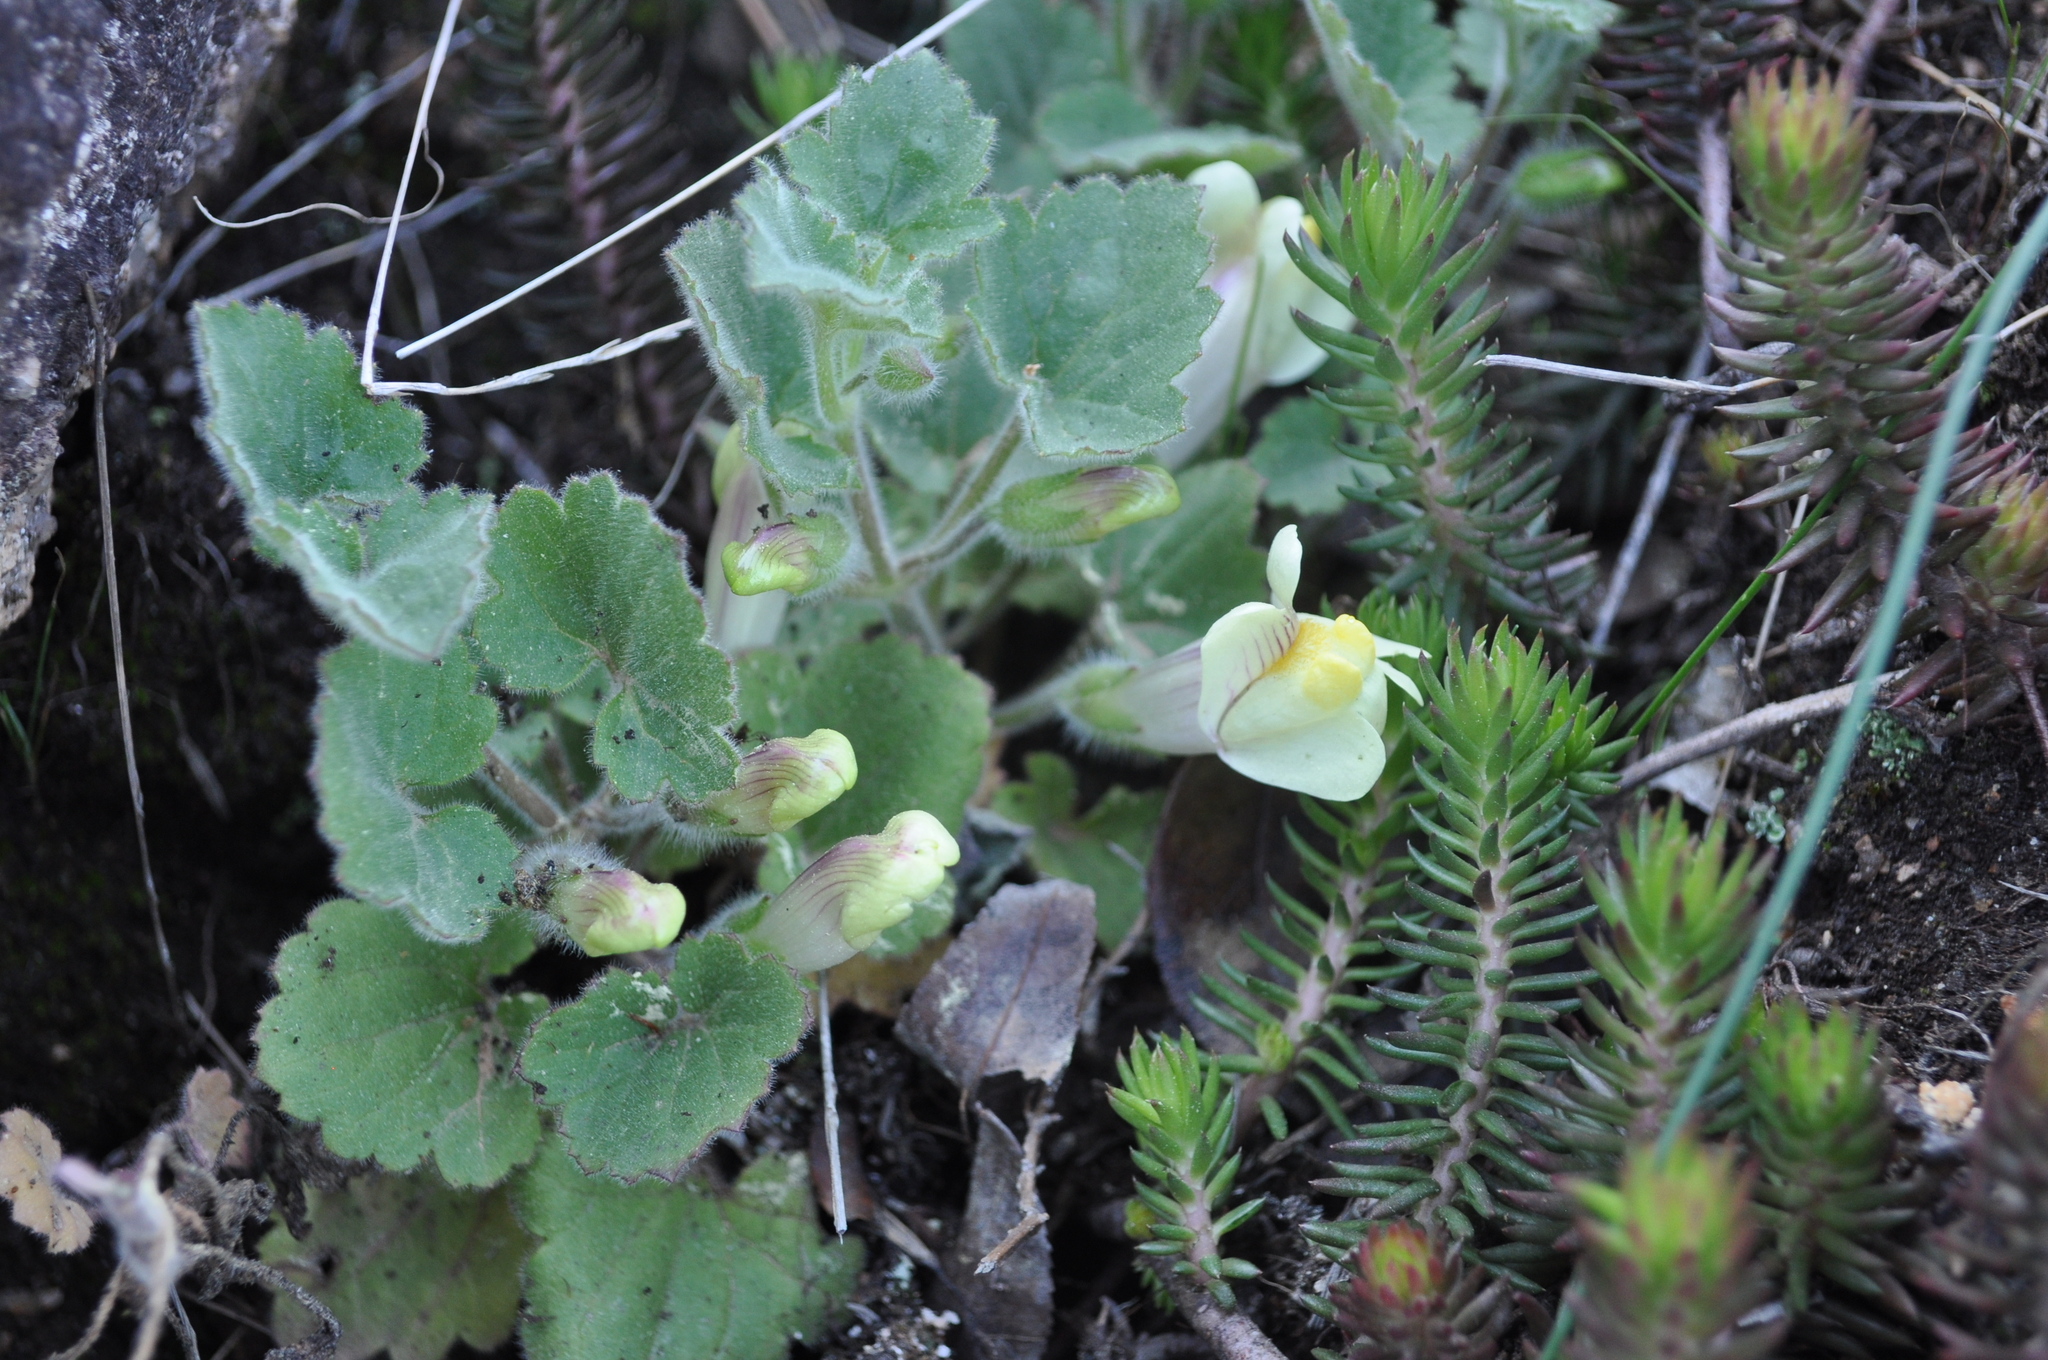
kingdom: Plantae
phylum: Tracheophyta
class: Magnoliopsida
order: Lamiales
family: Plantaginaceae
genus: Asarina
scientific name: Asarina procumbens
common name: Trailing snapdragon
